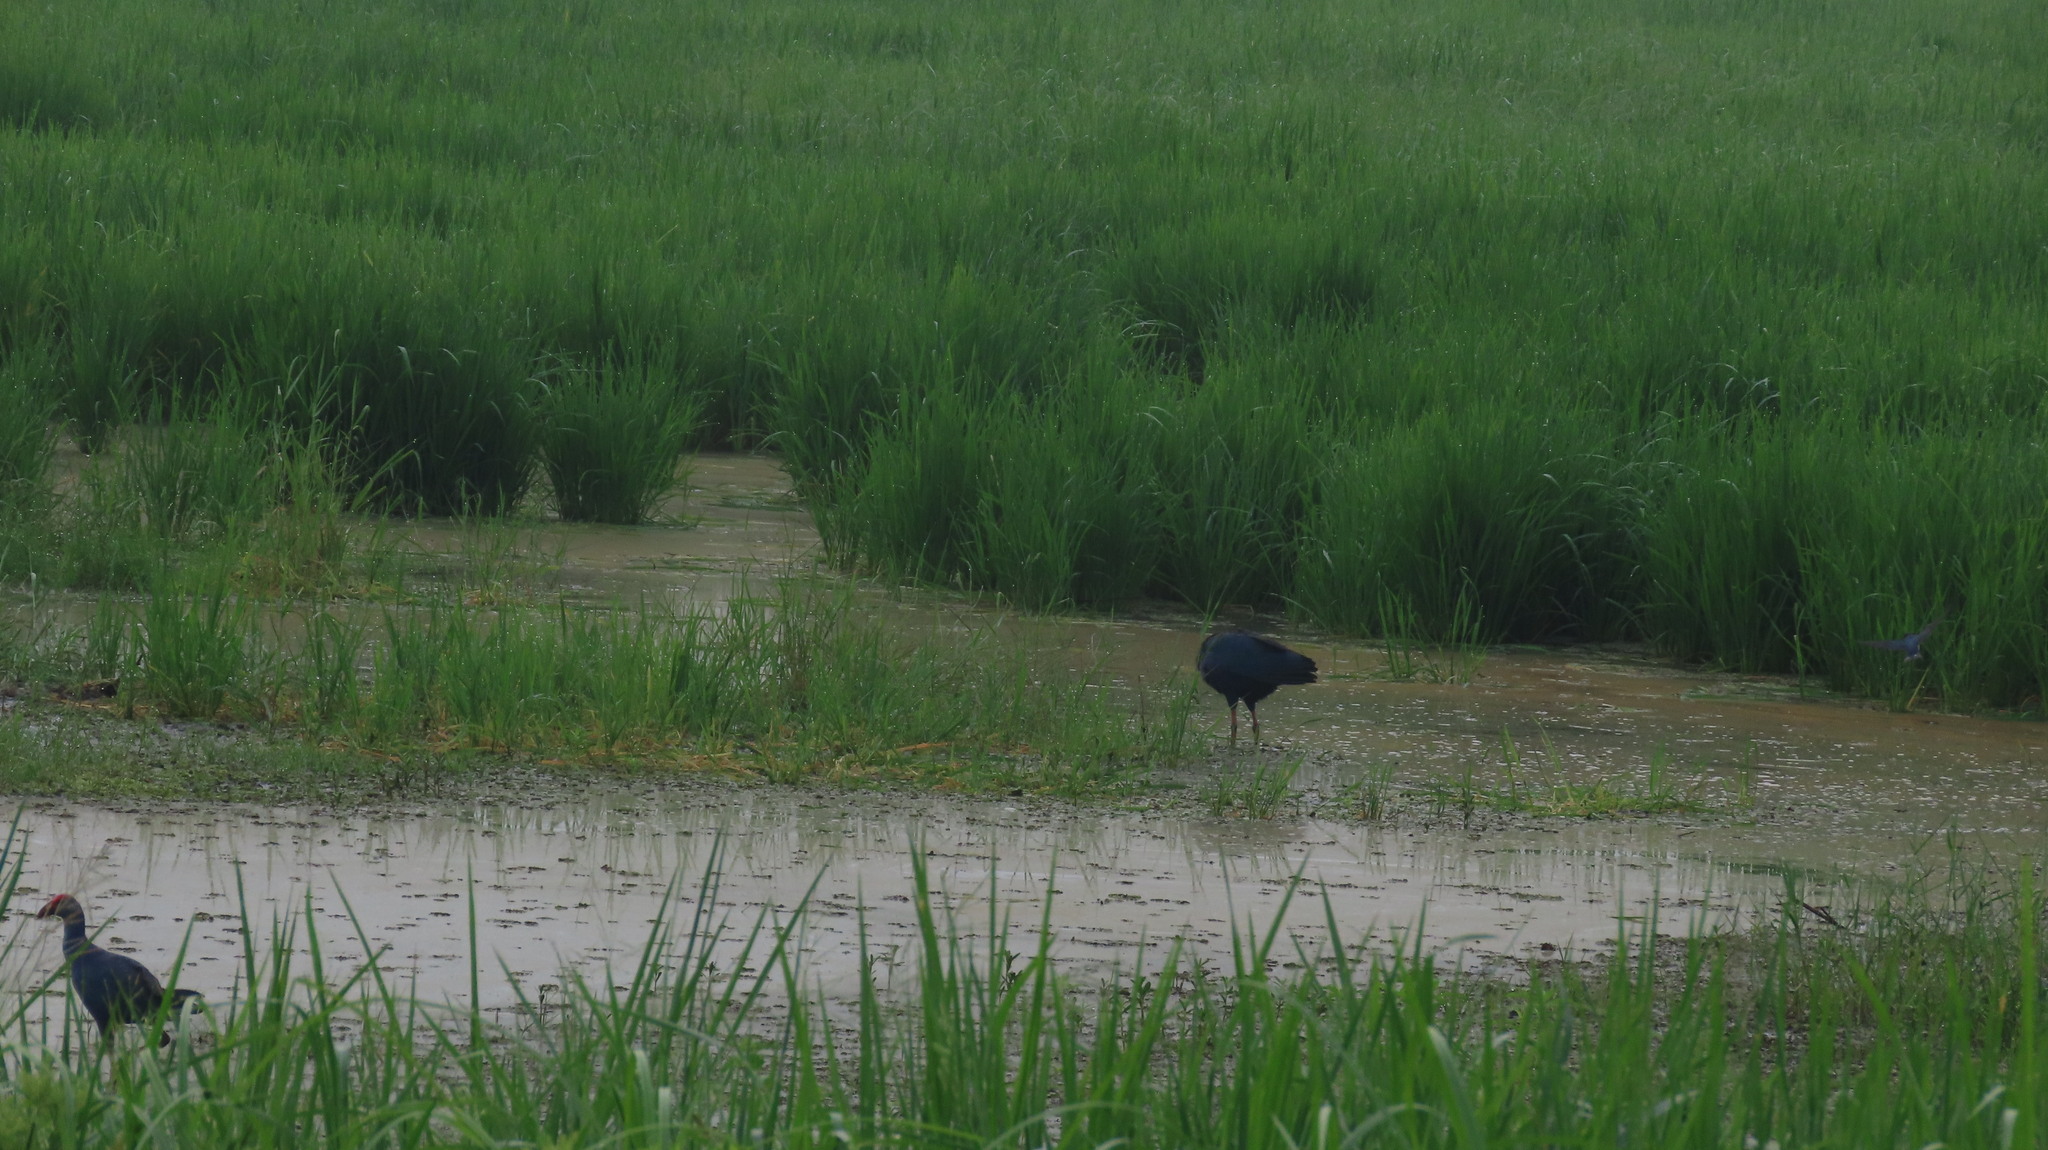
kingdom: Animalia
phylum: Chordata
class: Aves
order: Gruiformes
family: Rallidae
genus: Porphyrio
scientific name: Porphyrio porphyrio
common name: Purple swamphen
